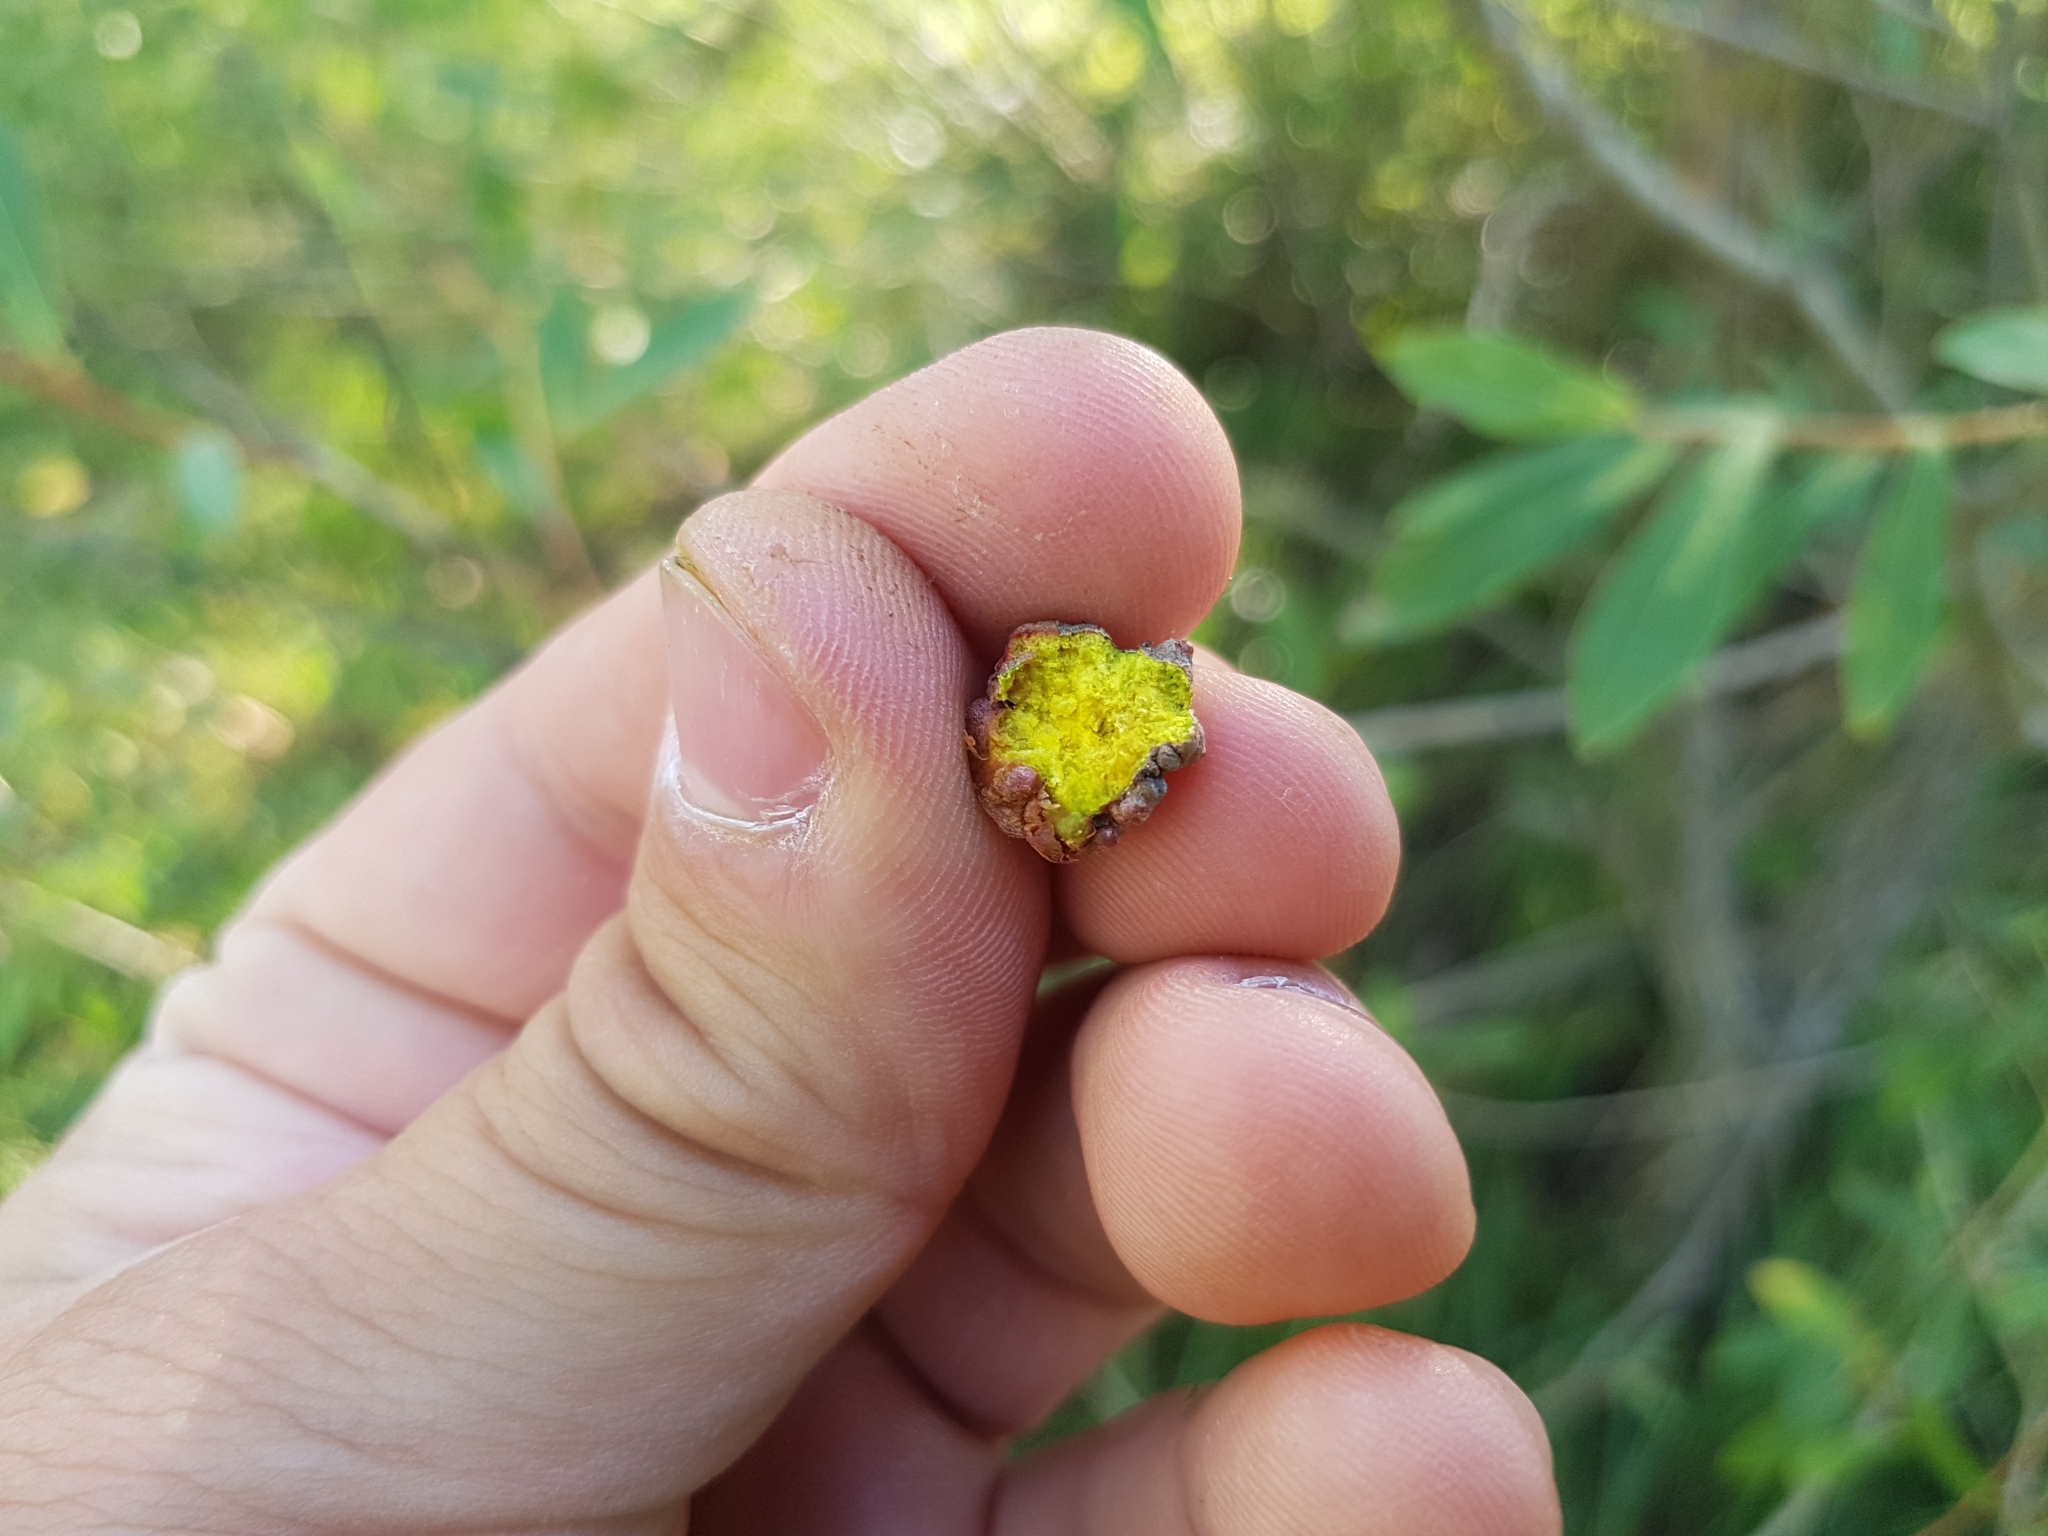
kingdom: Bacteria
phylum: Proteobacteria
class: Alphaproteobacteria
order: Rhizobiales
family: Rhizobiaceae
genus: Rhizobium
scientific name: Rhizobium Agrobacterium radiobacter
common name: Bacterial crown gall
